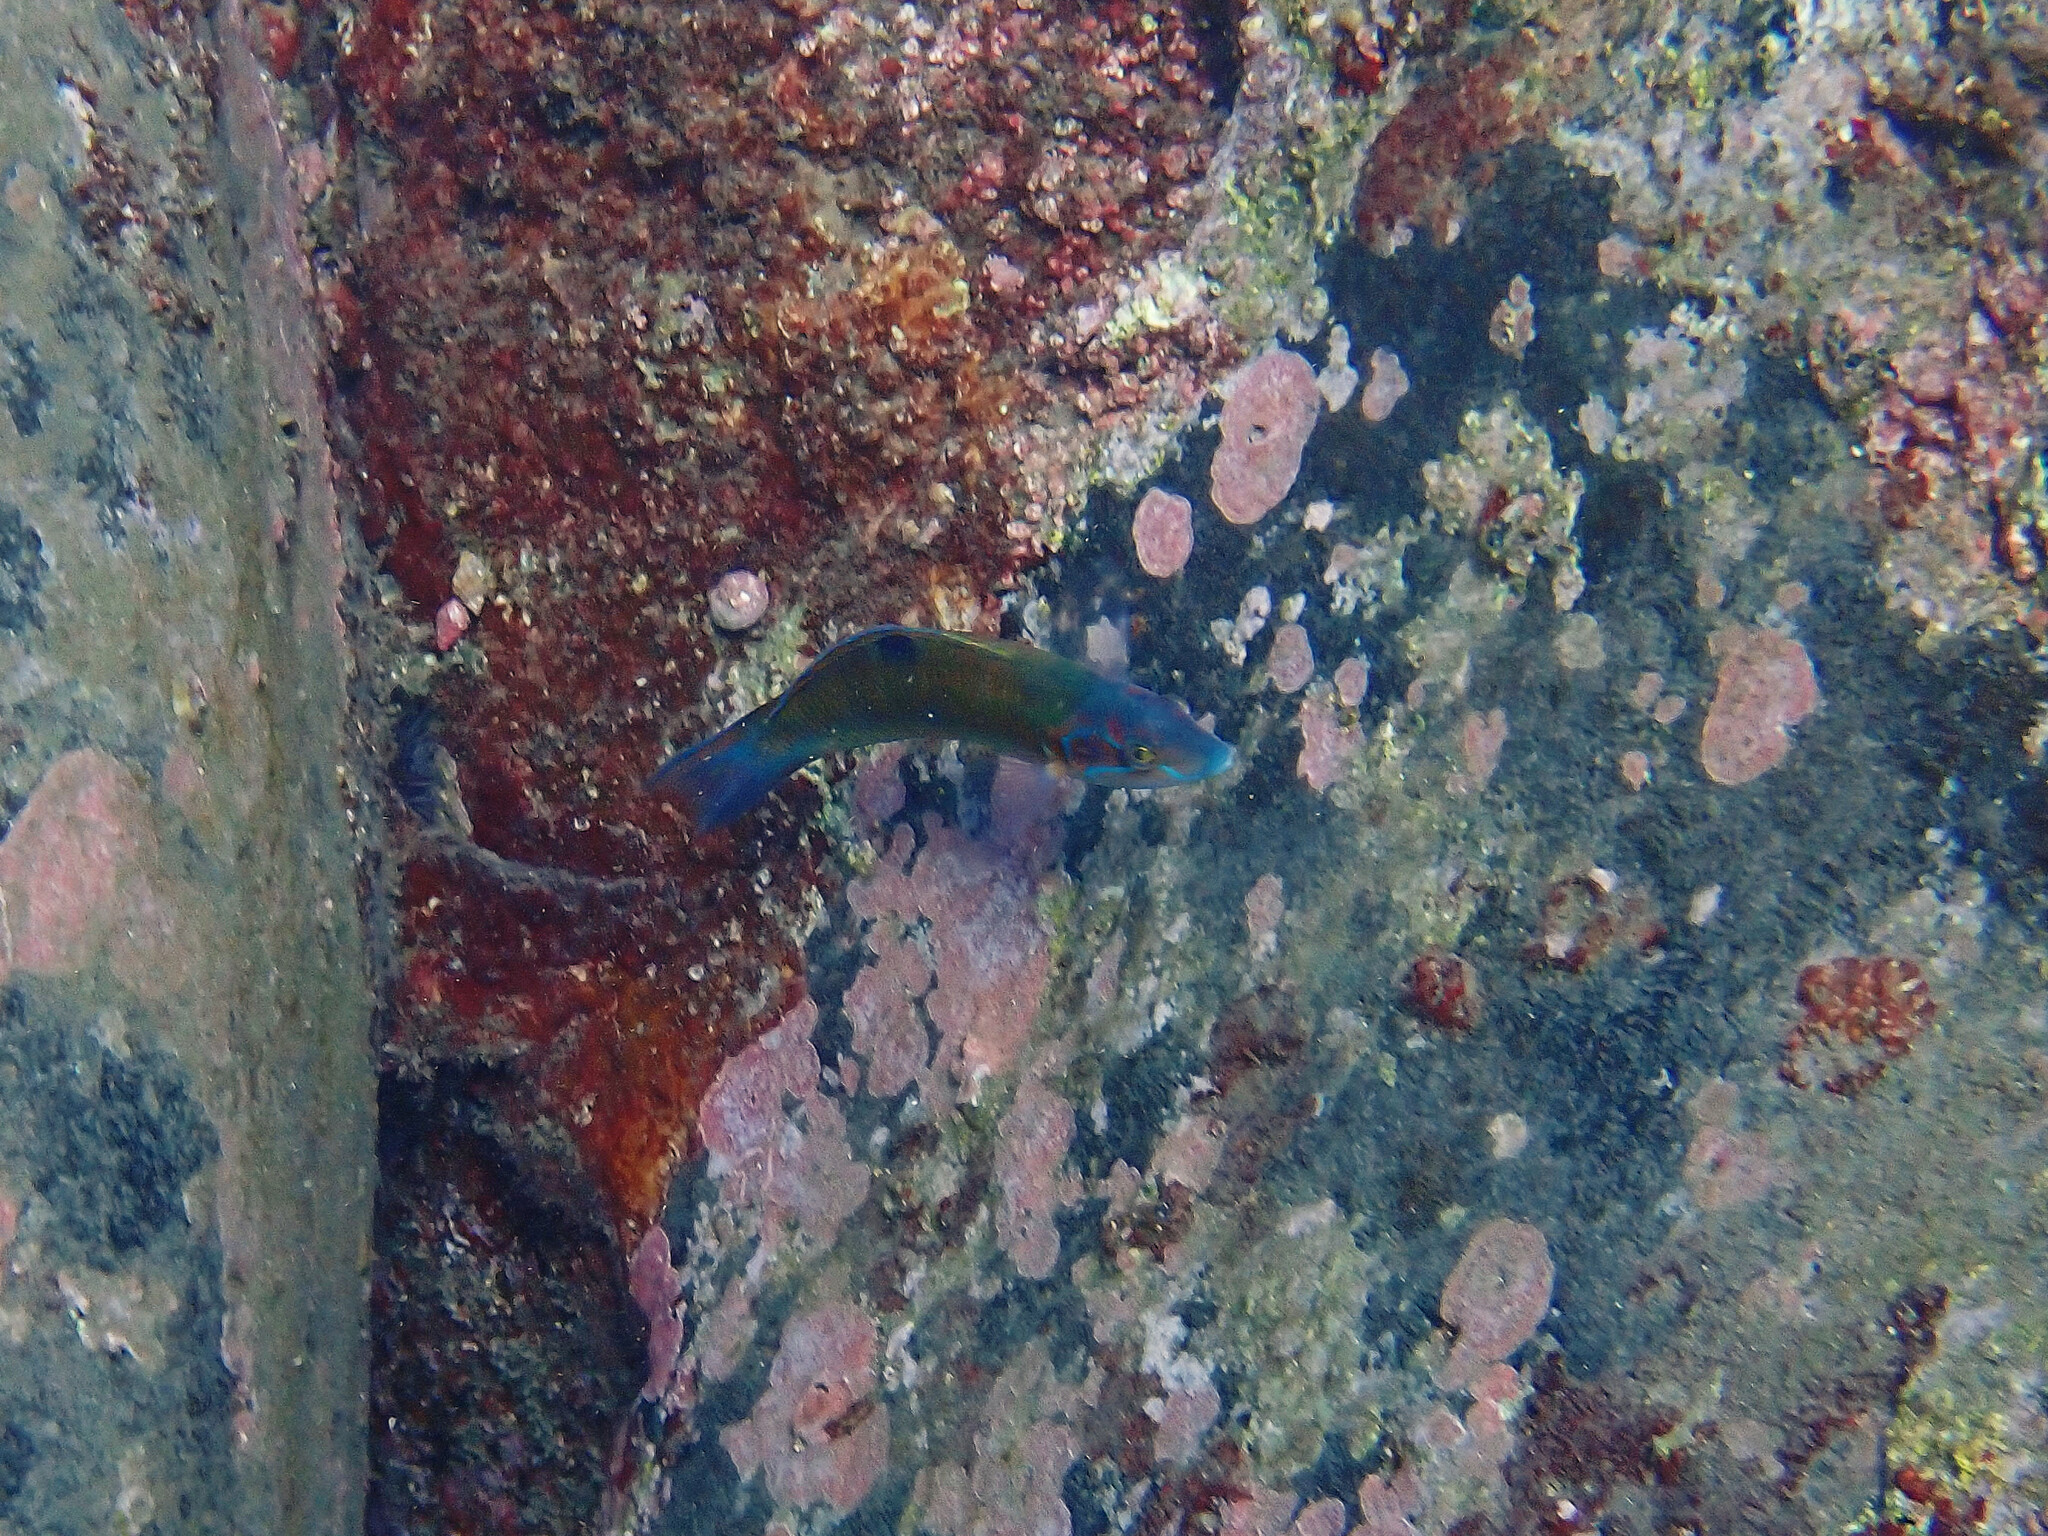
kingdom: Animalia
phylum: Chordata
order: Perciformes
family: Labridae
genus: Thalassoma
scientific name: Thalassoma pavo
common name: Ornate wrasse
